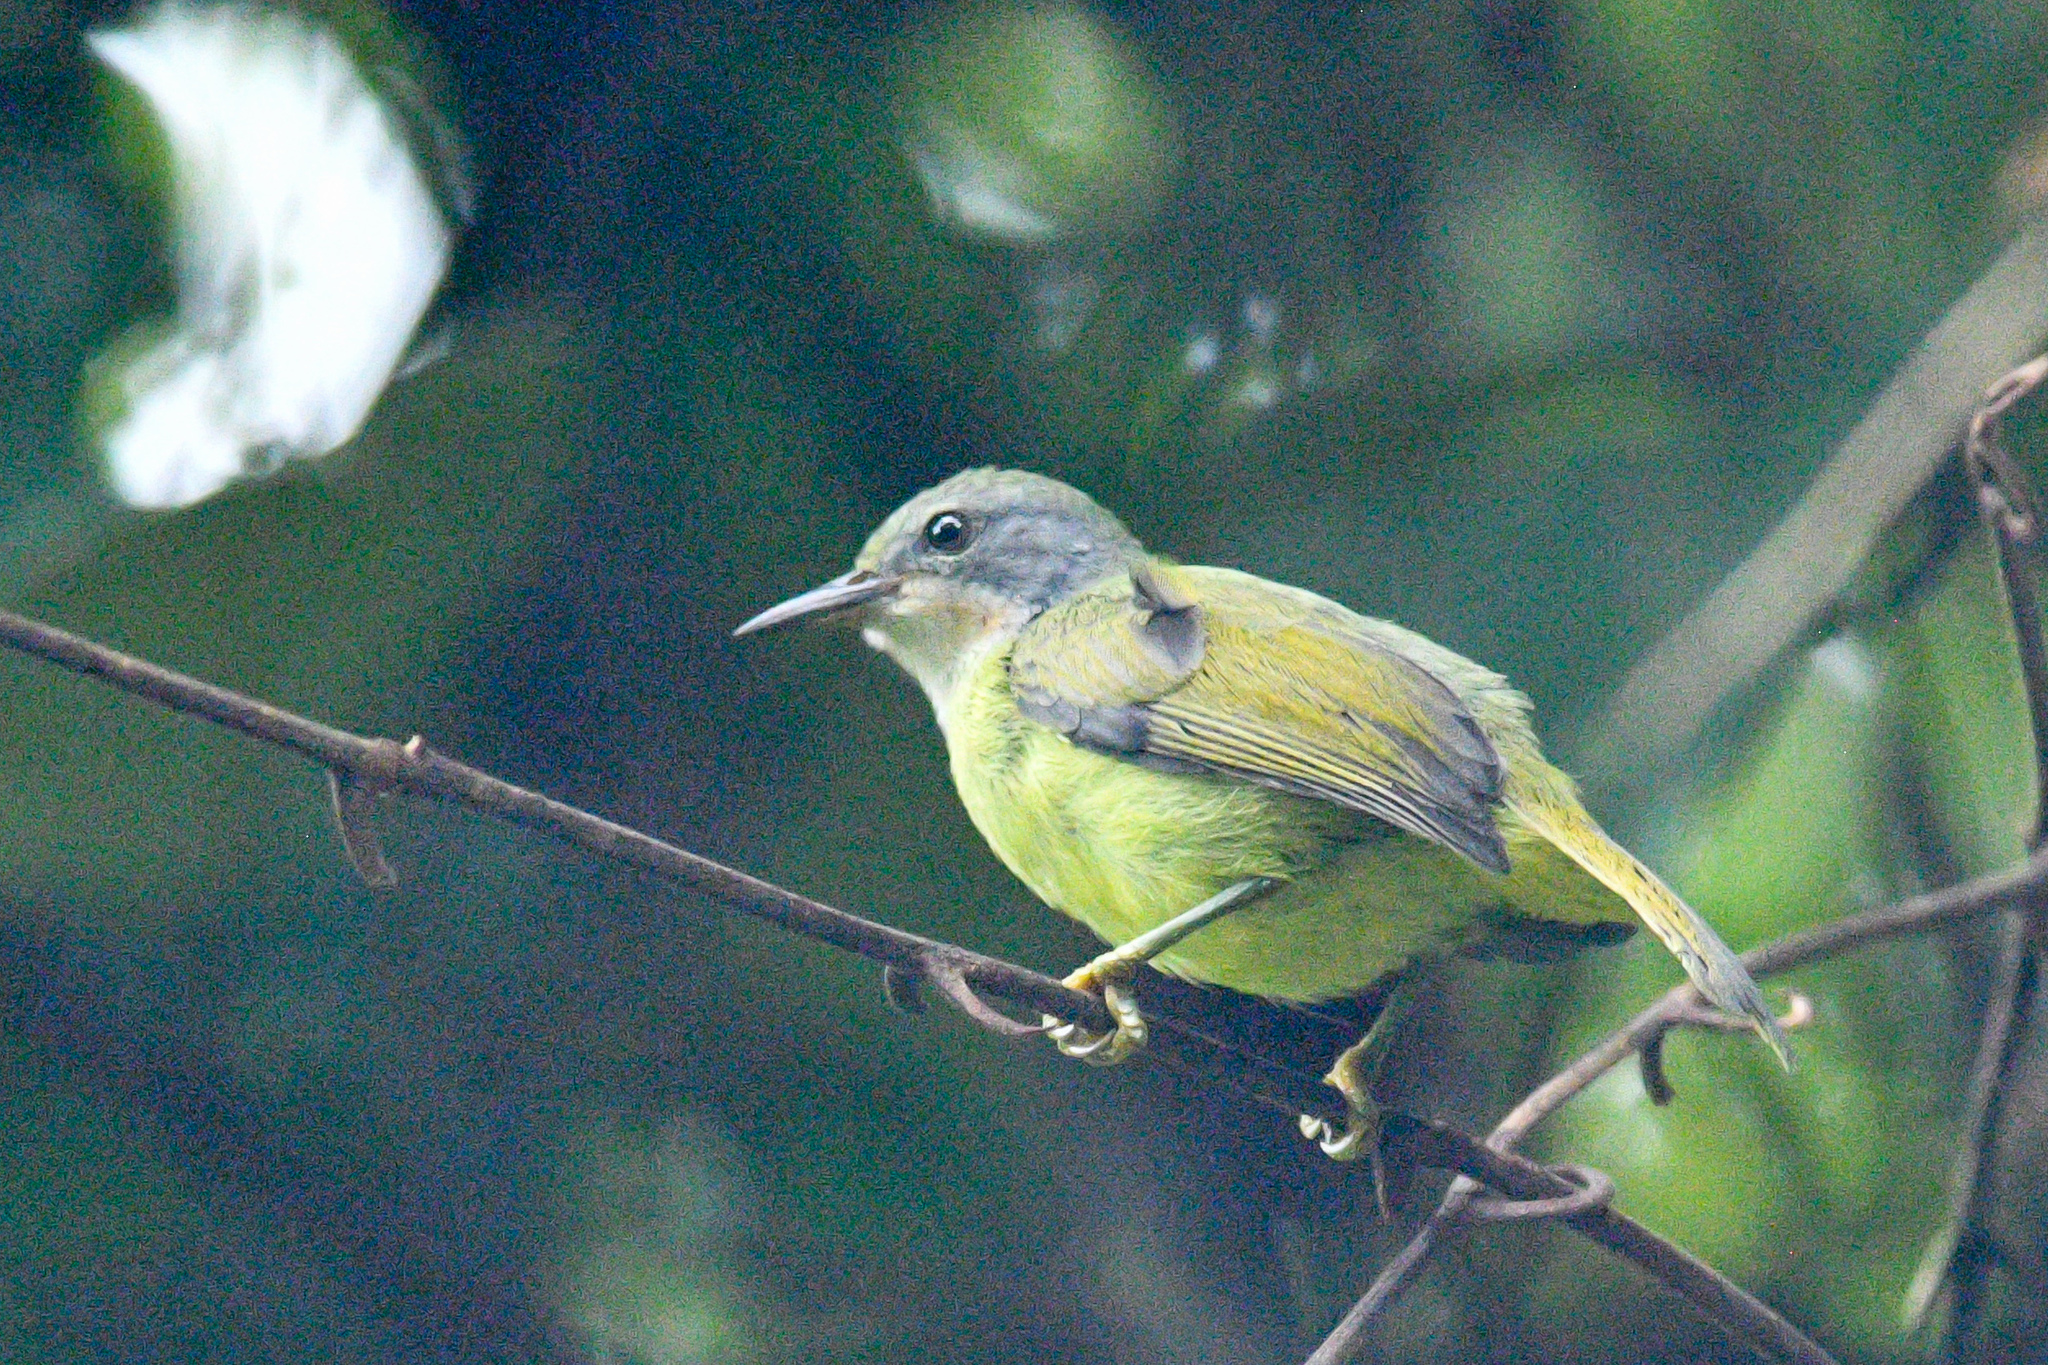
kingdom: Animalia
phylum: Chordata
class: Aves
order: Passeriformes
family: Nectariniidae
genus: Chalcoparia
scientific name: Chalcoparia singalensis
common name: Ruby-cheeked sunbird
